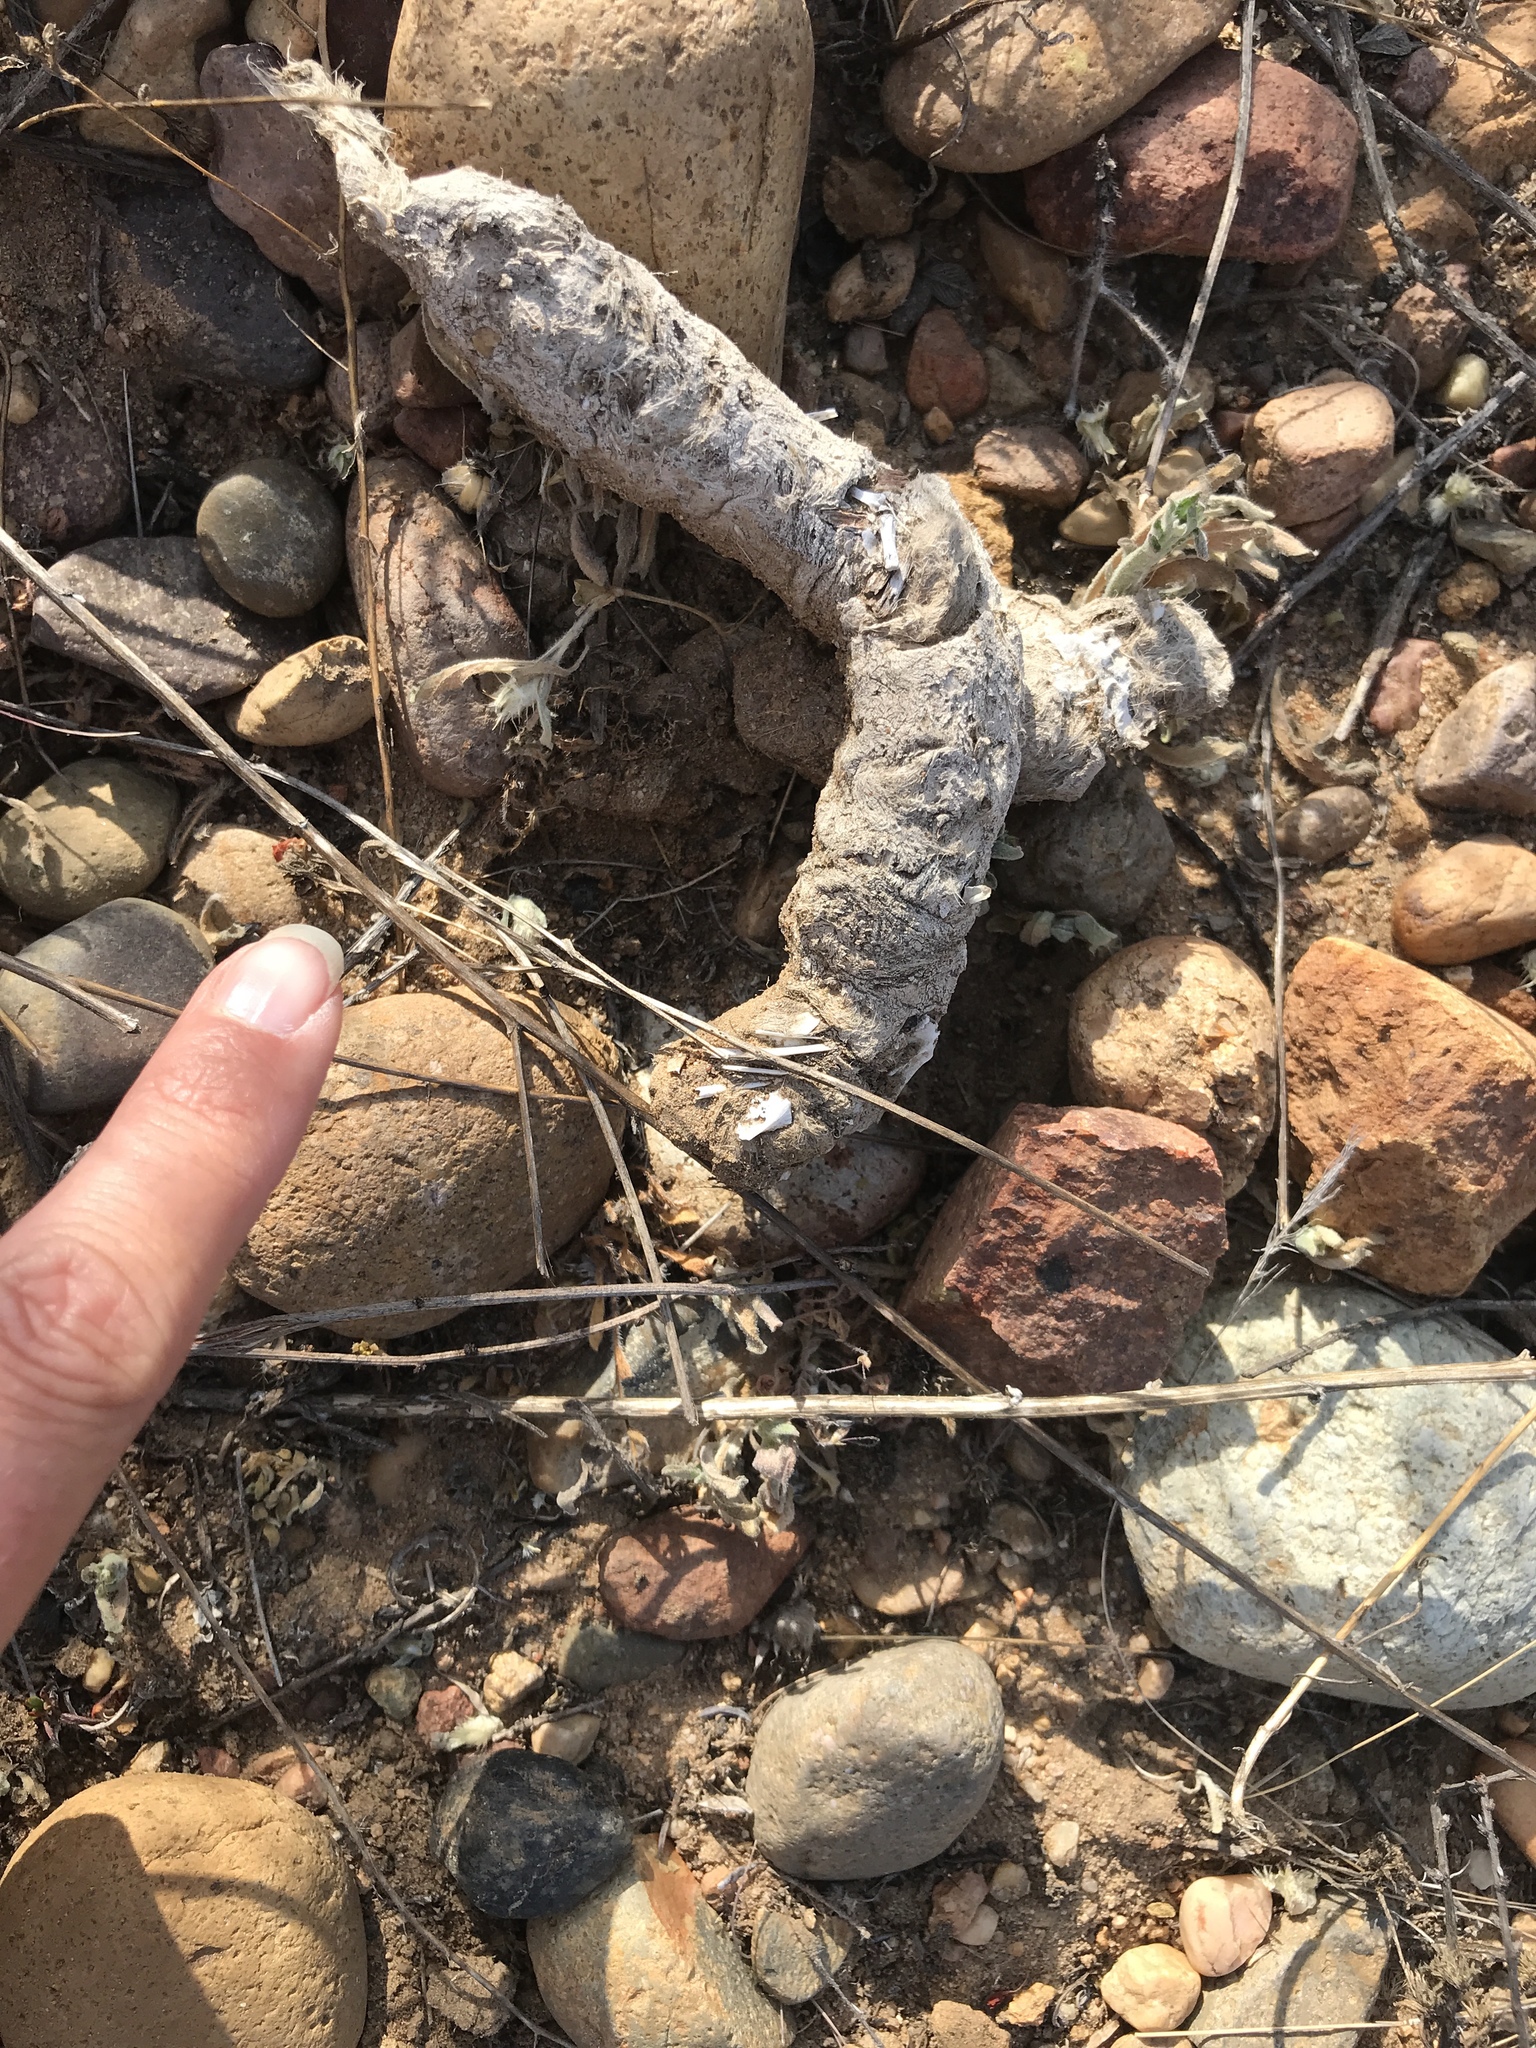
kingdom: Animalia
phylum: Chordata
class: Mammalia
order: Carnivora
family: Canidae
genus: Canis
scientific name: Canis latrans
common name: Coyote
